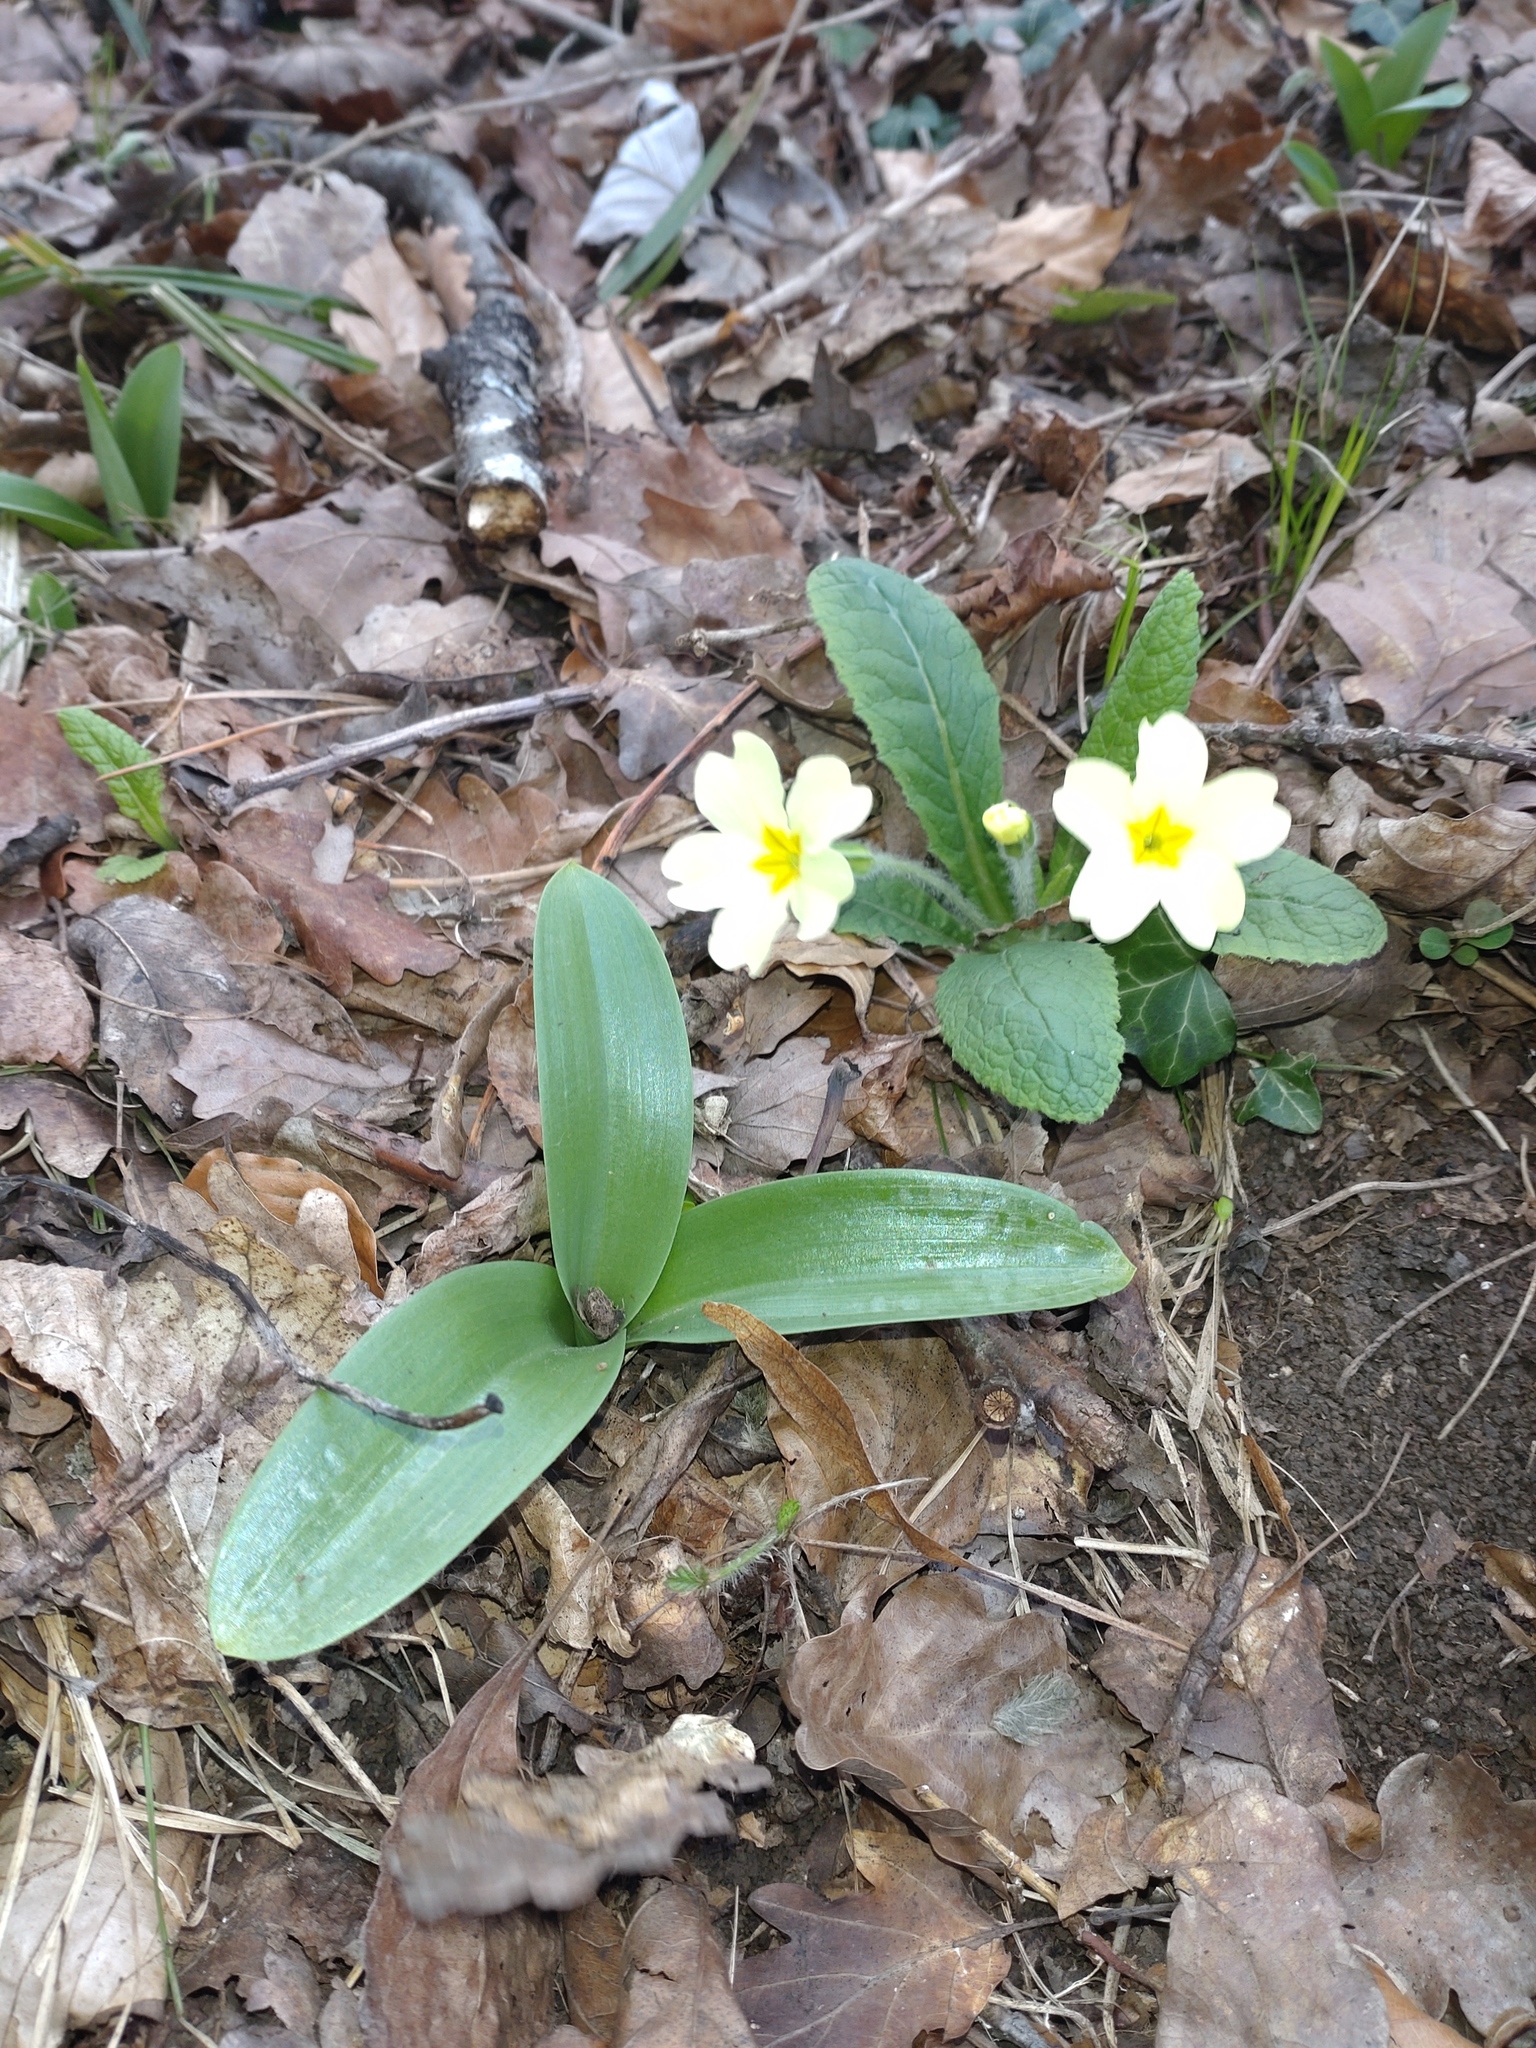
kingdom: Plantae
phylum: Tracheophyta
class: Liliopsida
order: Asparagales
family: Orchidaceae
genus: Orchis
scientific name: Orchis pallens
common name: Pale-flowered orchid
